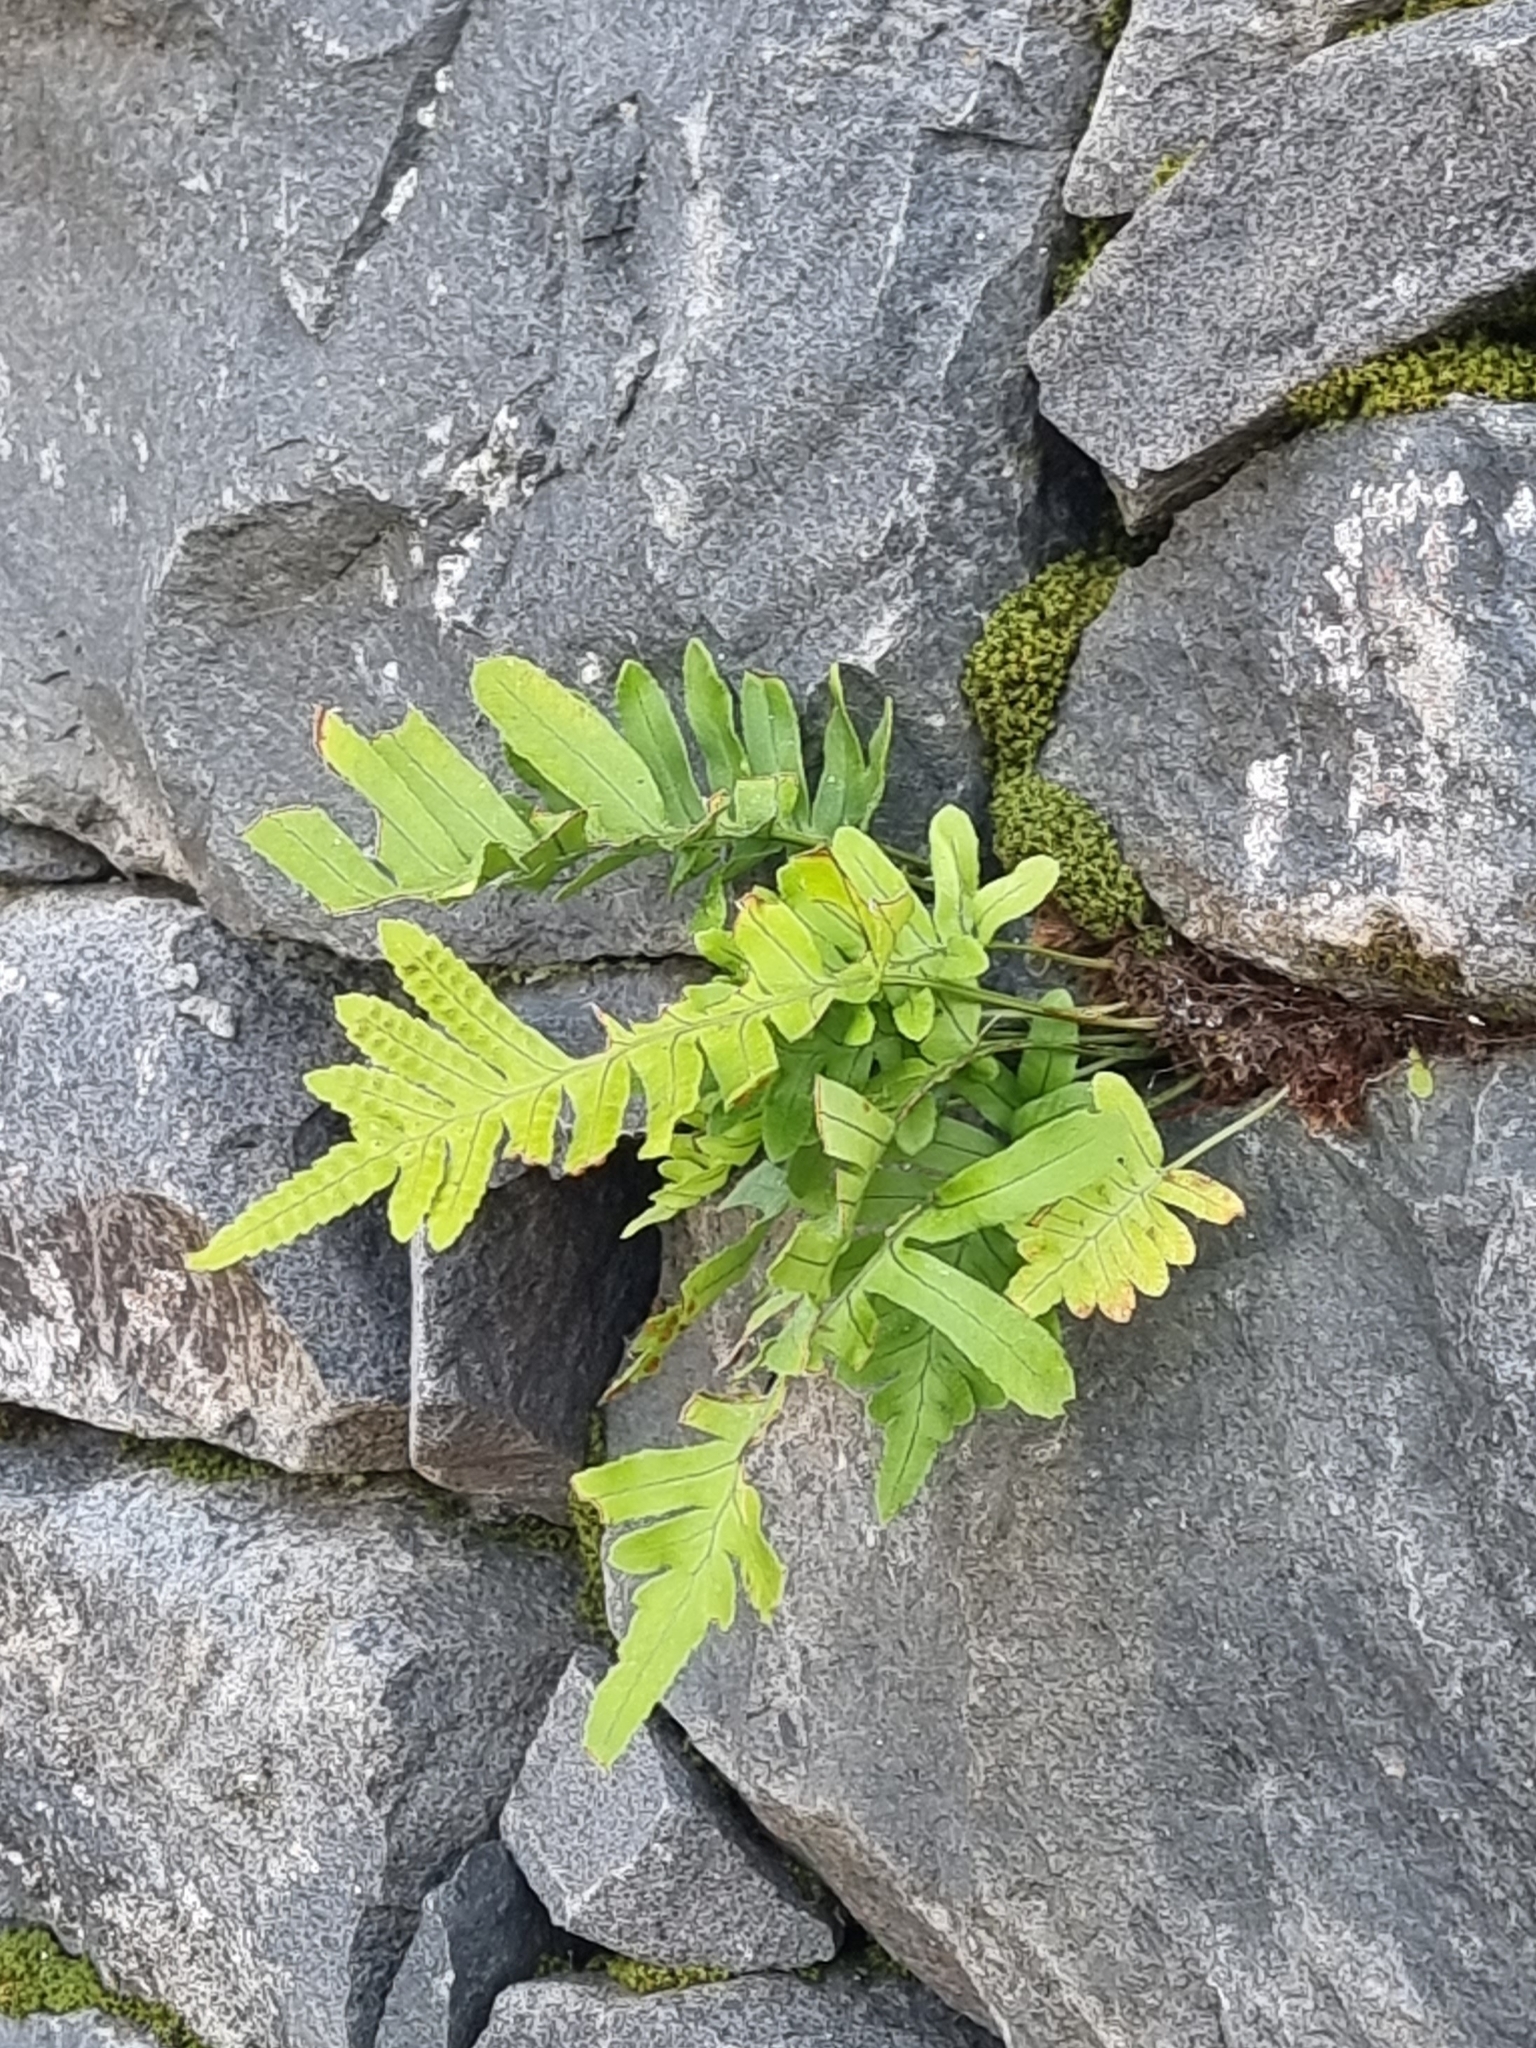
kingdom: Plantae
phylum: Tracheophyta
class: Polypodiopsida
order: Polypodiales
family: Polypodiaceae
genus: Polypodium
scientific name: Polypodium macaronesicum
